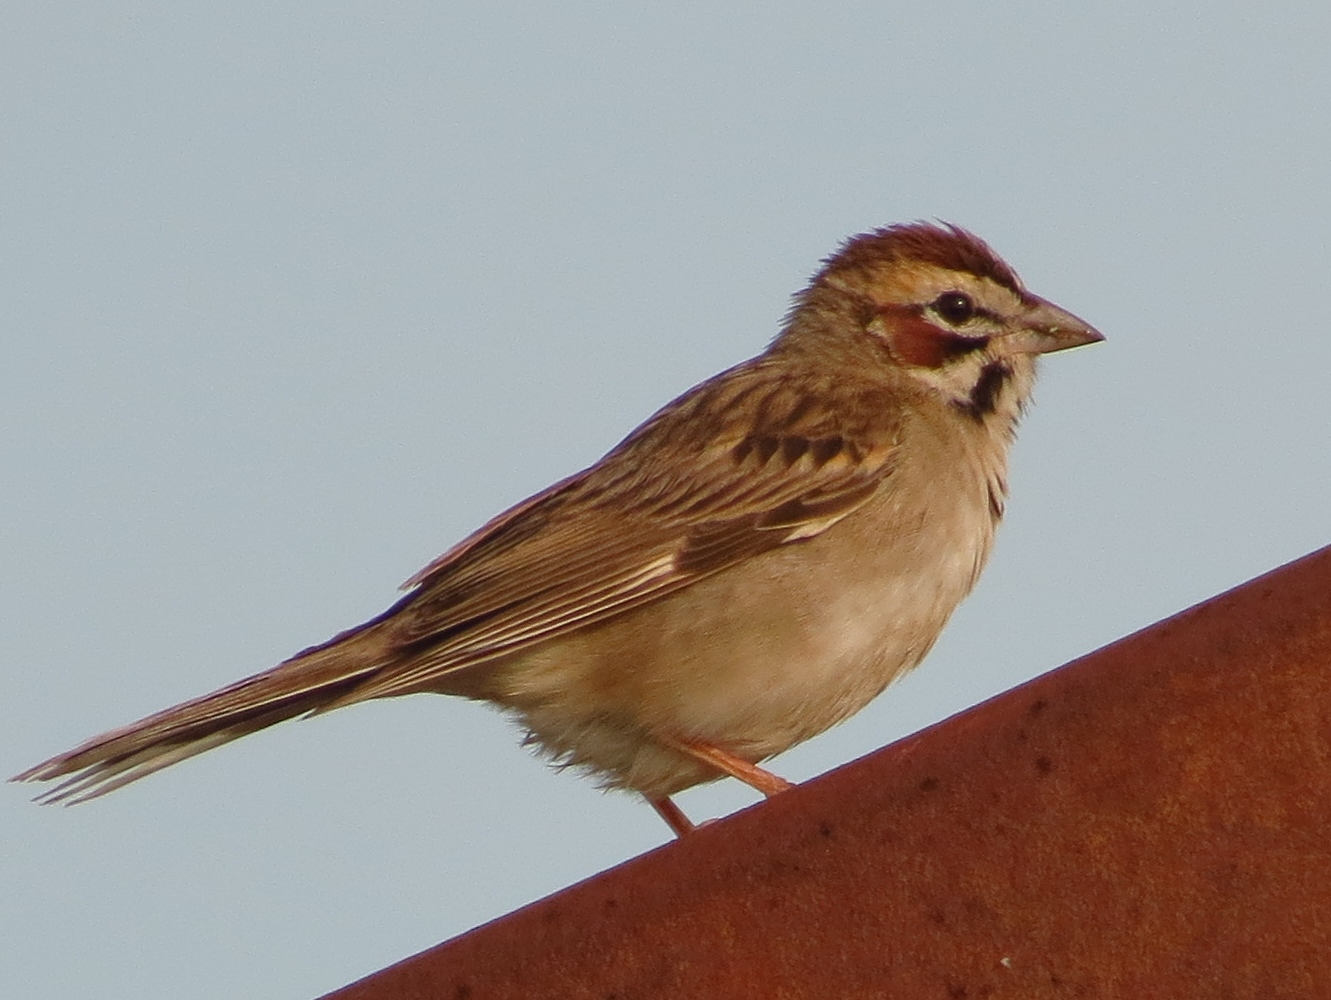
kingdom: Animalia
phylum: Chordata
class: Aves
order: Passeriformes
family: Passerellidae
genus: Chondestes
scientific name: Chondestes grammacus
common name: Lark sparrow
